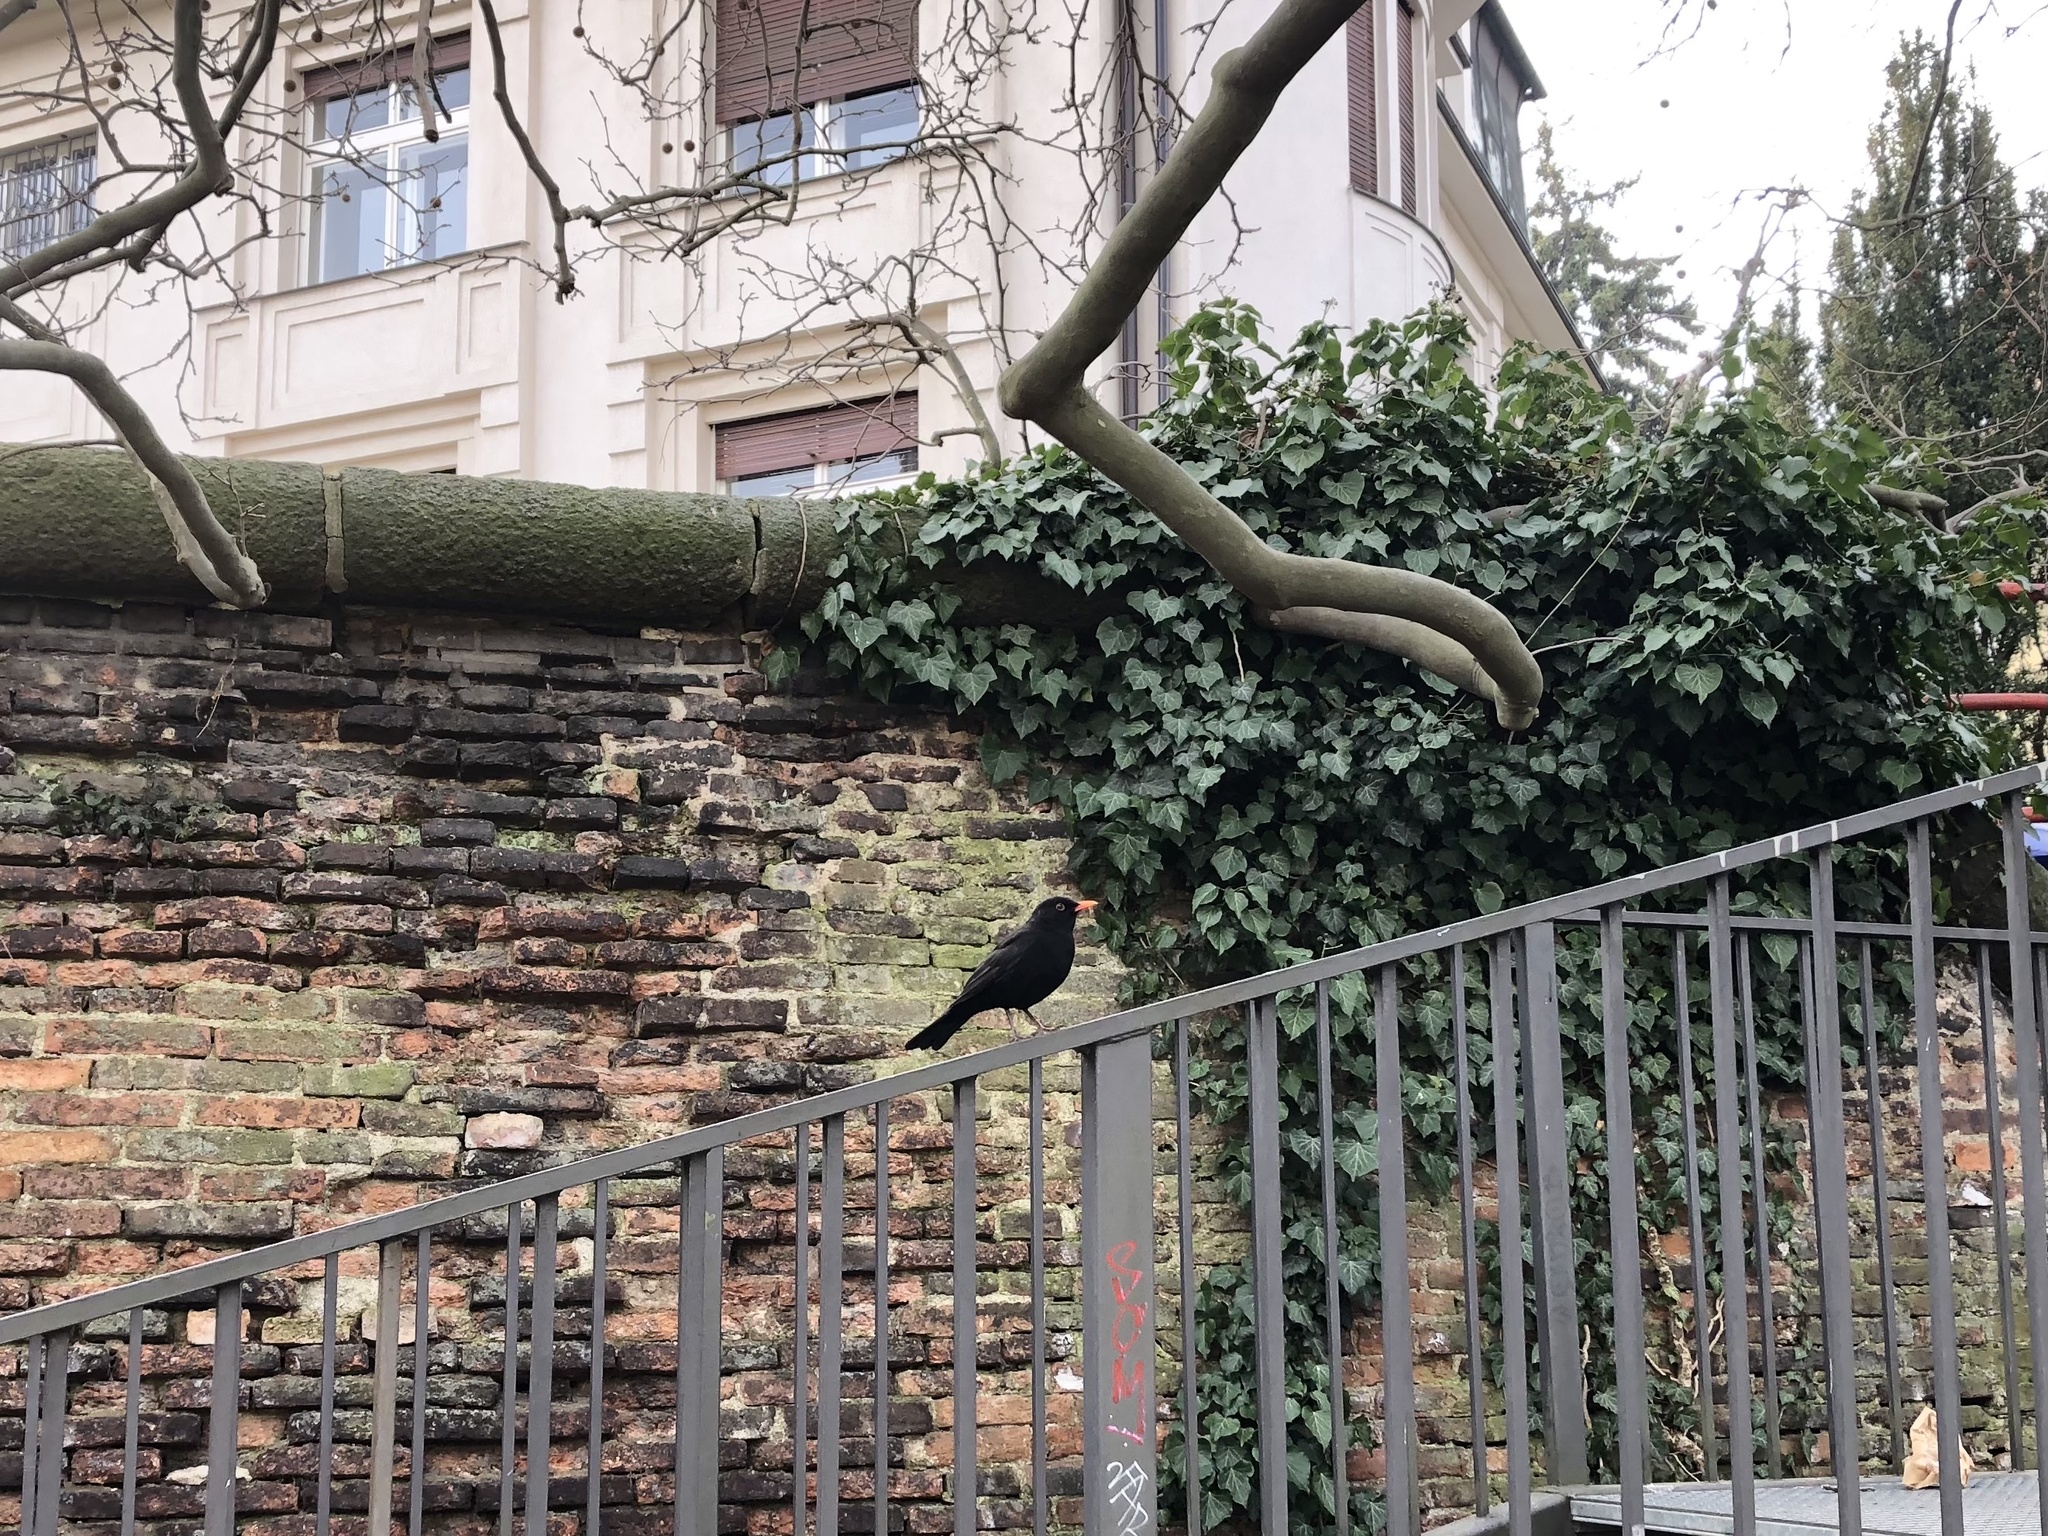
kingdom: Animalia
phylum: Chordata
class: Aves
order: Passeriformes
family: Turdidae
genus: Turdus
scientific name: Turdus merula
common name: Common blackbird
